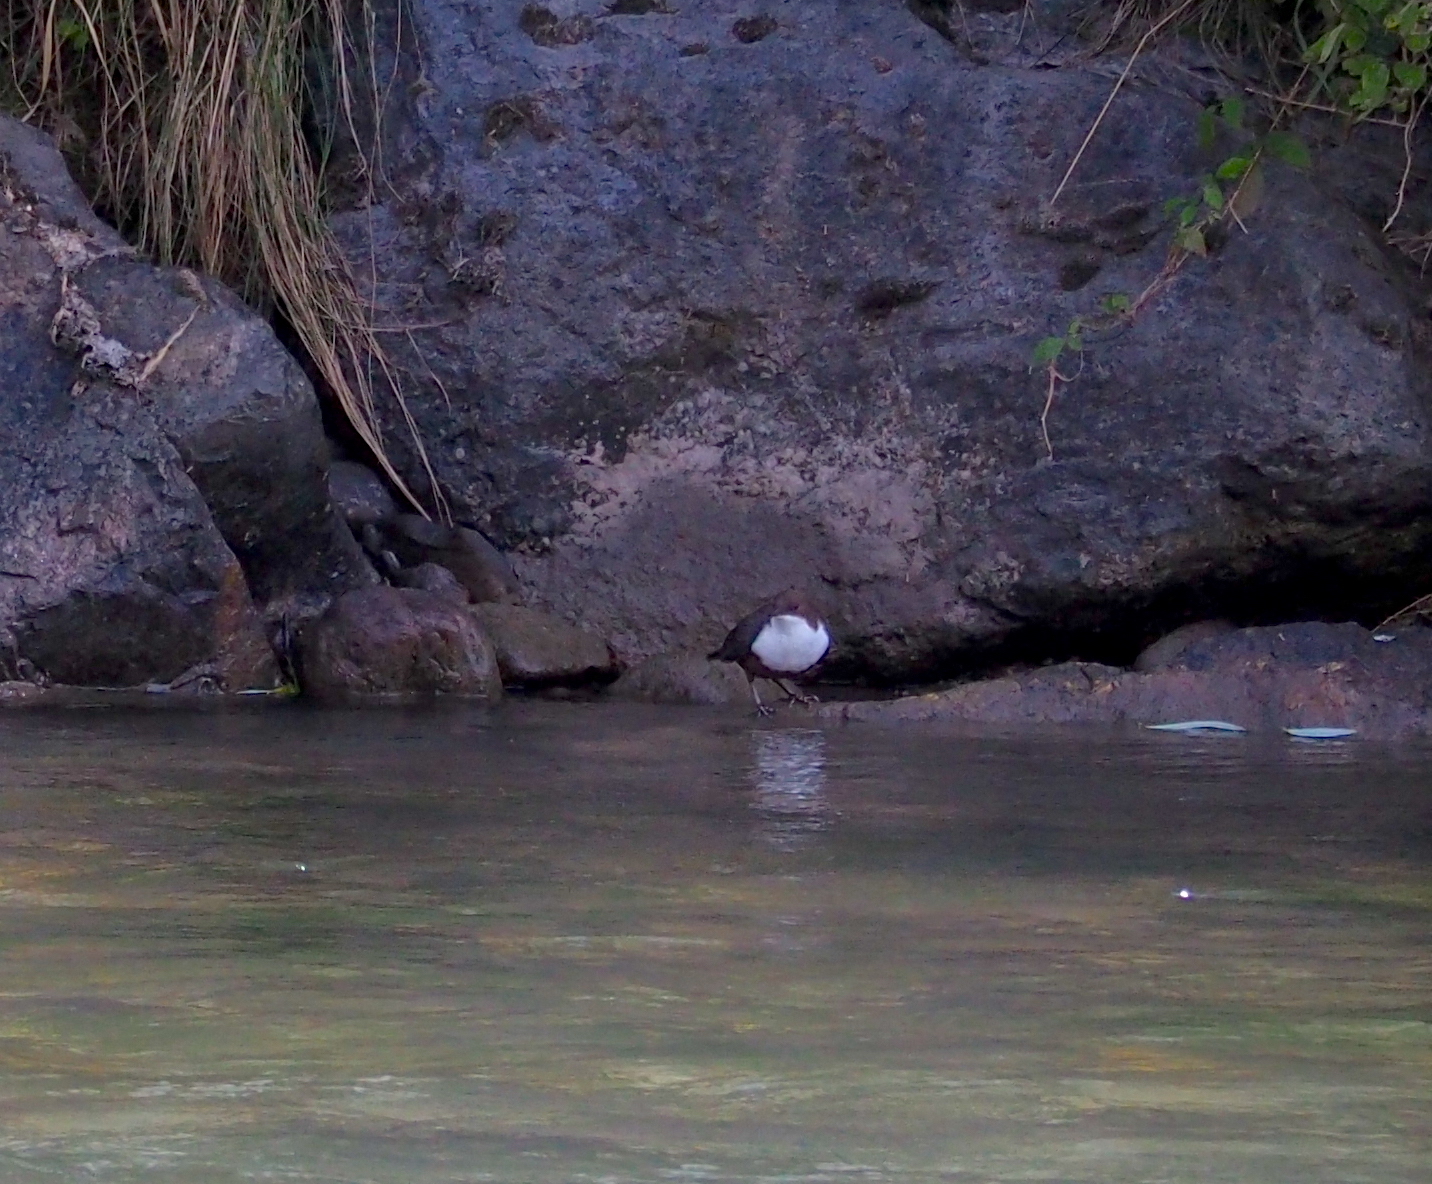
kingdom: Animalia
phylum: Chordata
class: Aves
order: Passeriformes
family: Cinclidae
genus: Cinclus
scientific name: Cinclus cinclus
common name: White-throated dipper
